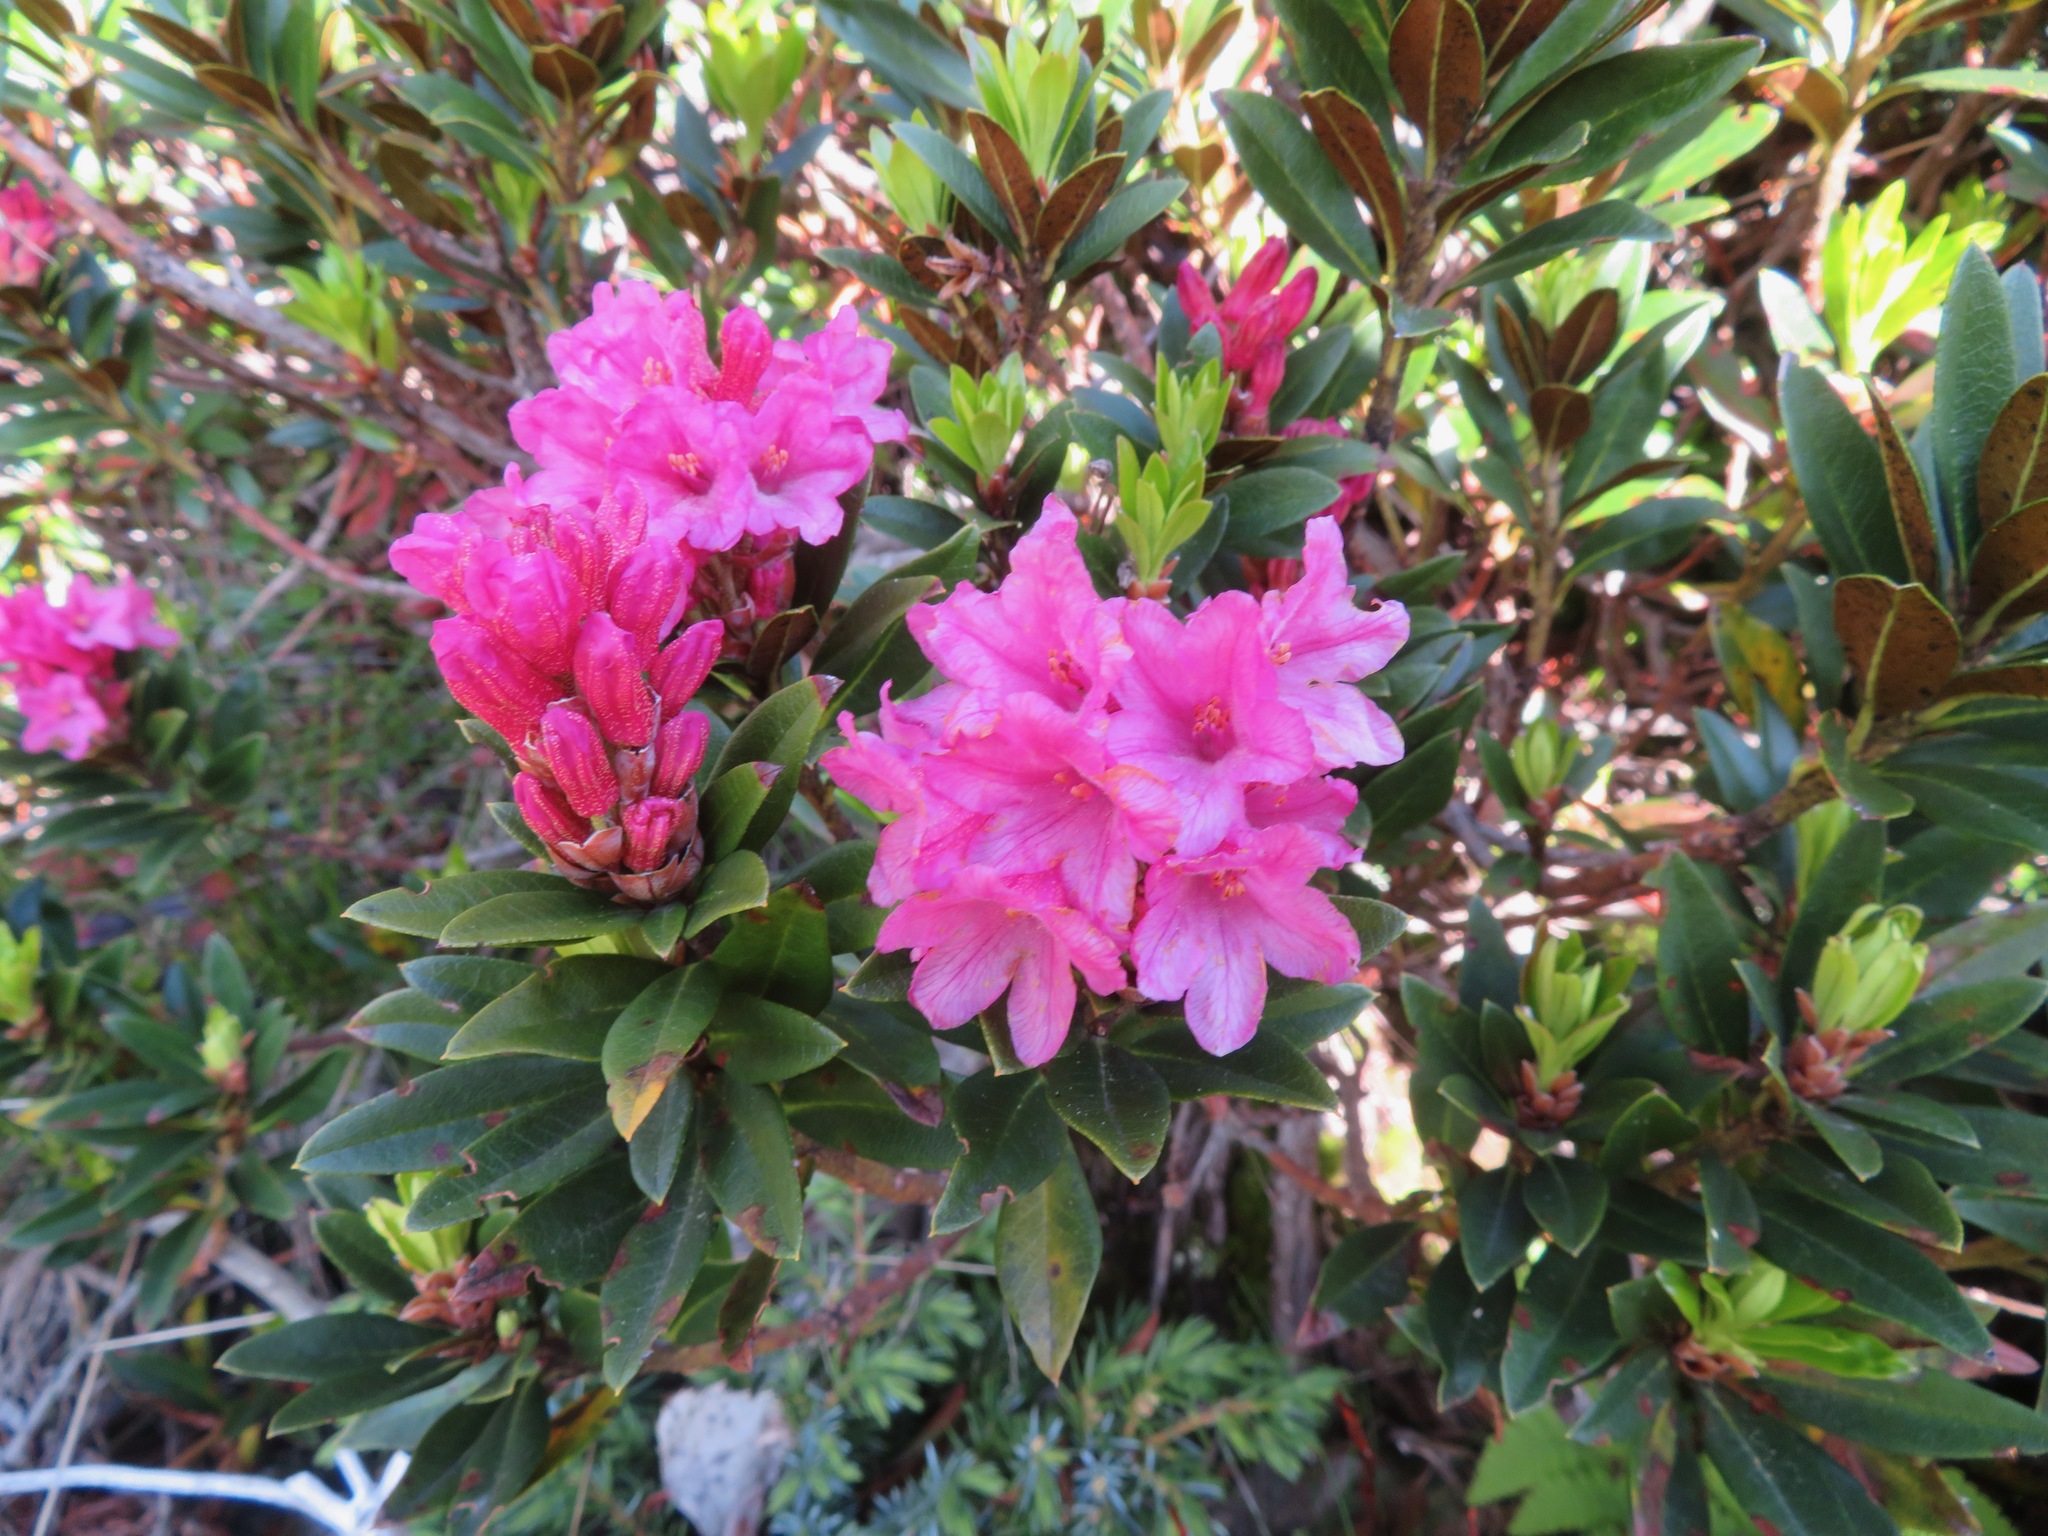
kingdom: Plantae
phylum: Tracheophyta
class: Magnoliopsida
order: Ericales
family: Ericaceae
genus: Rhododendron
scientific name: Rhododendron ferrugineum
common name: Alpenrose
